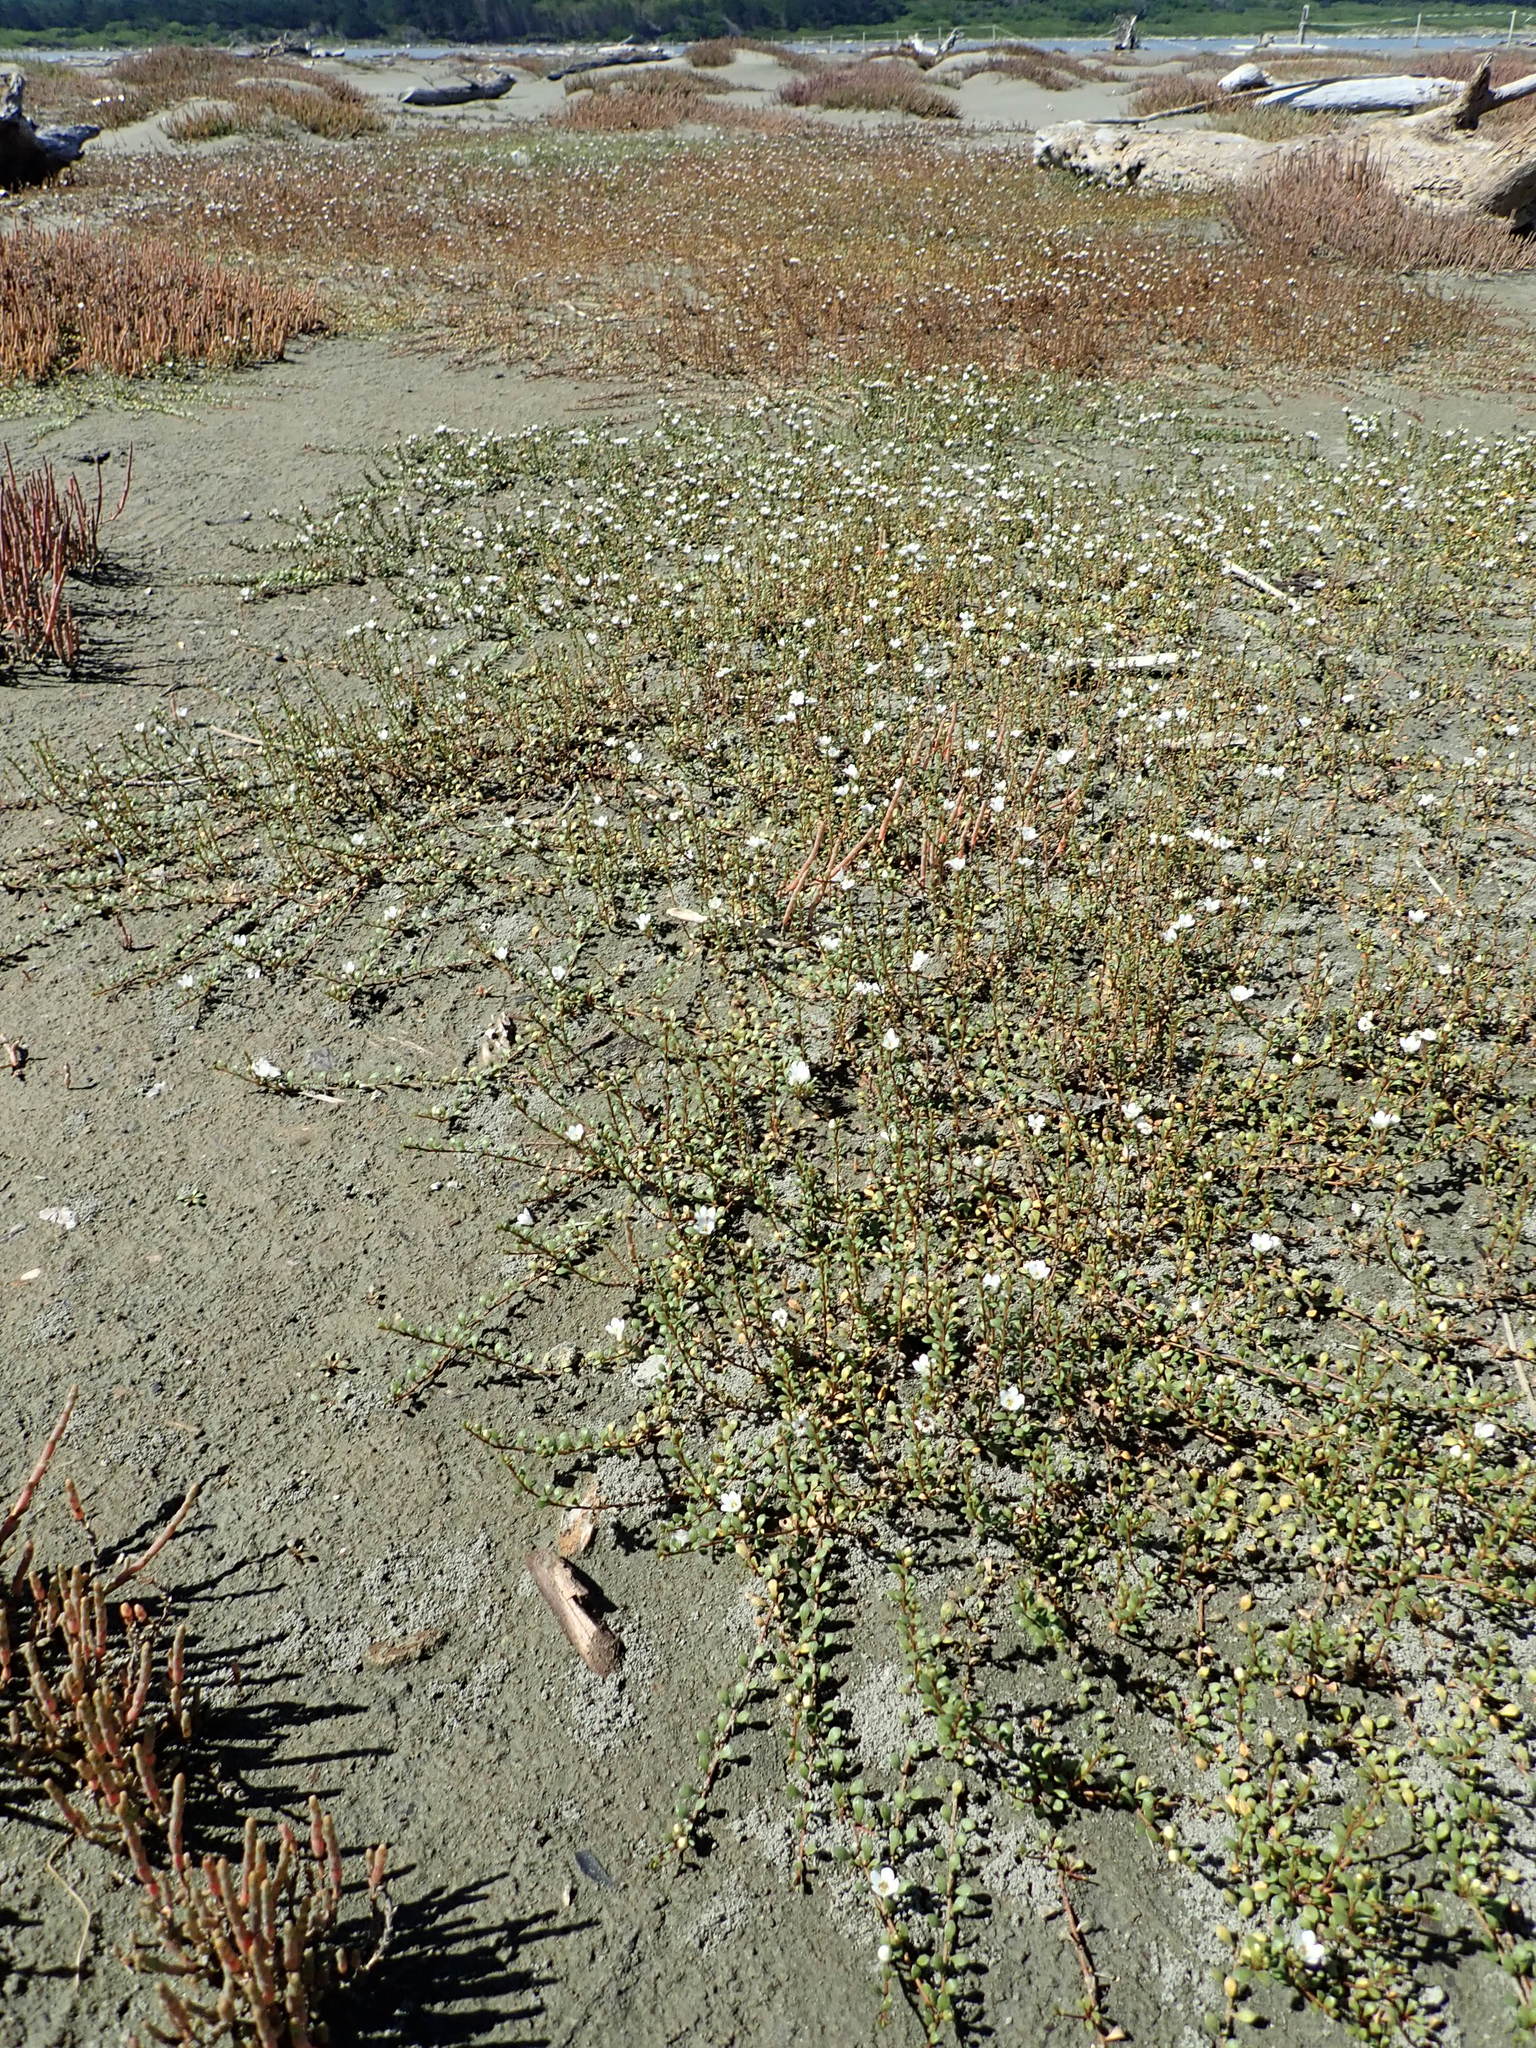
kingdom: Plantae
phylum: Tracheophyta
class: Magnoliopsida
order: Ericales
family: Primulaceae
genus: Samolus
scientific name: Samolus repens
